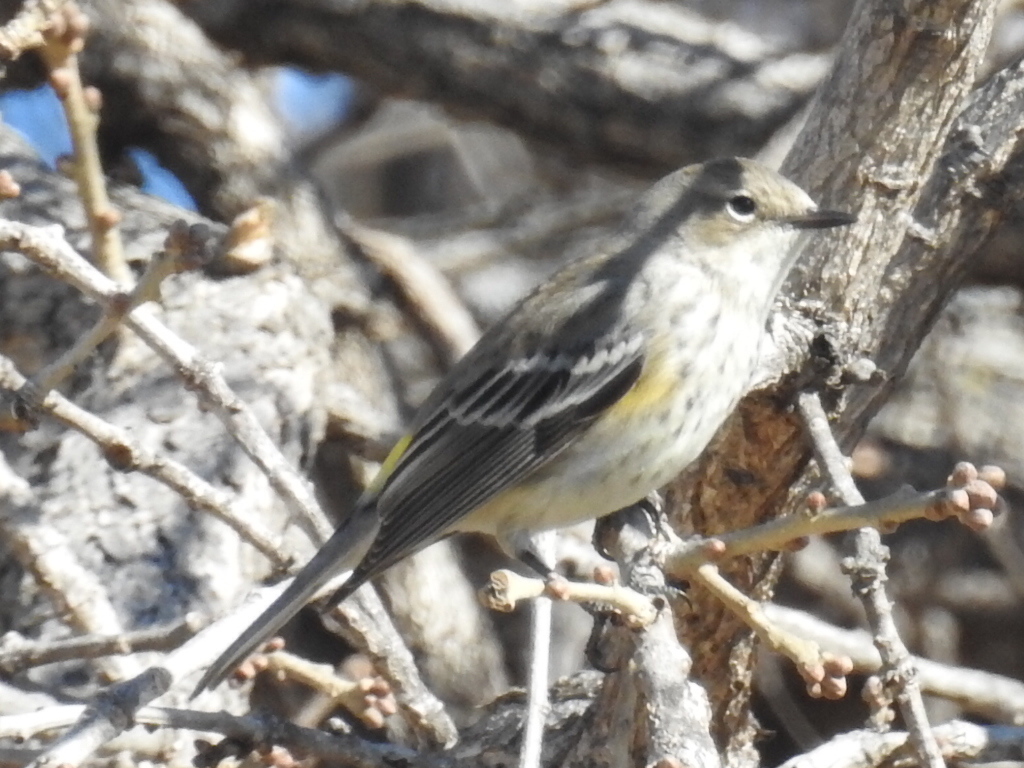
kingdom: Animalia
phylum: Chordata
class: Aves
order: Passeriformes
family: Parulidae
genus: Setophaga
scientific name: Setophaga coronata
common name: Myrtle warbler
